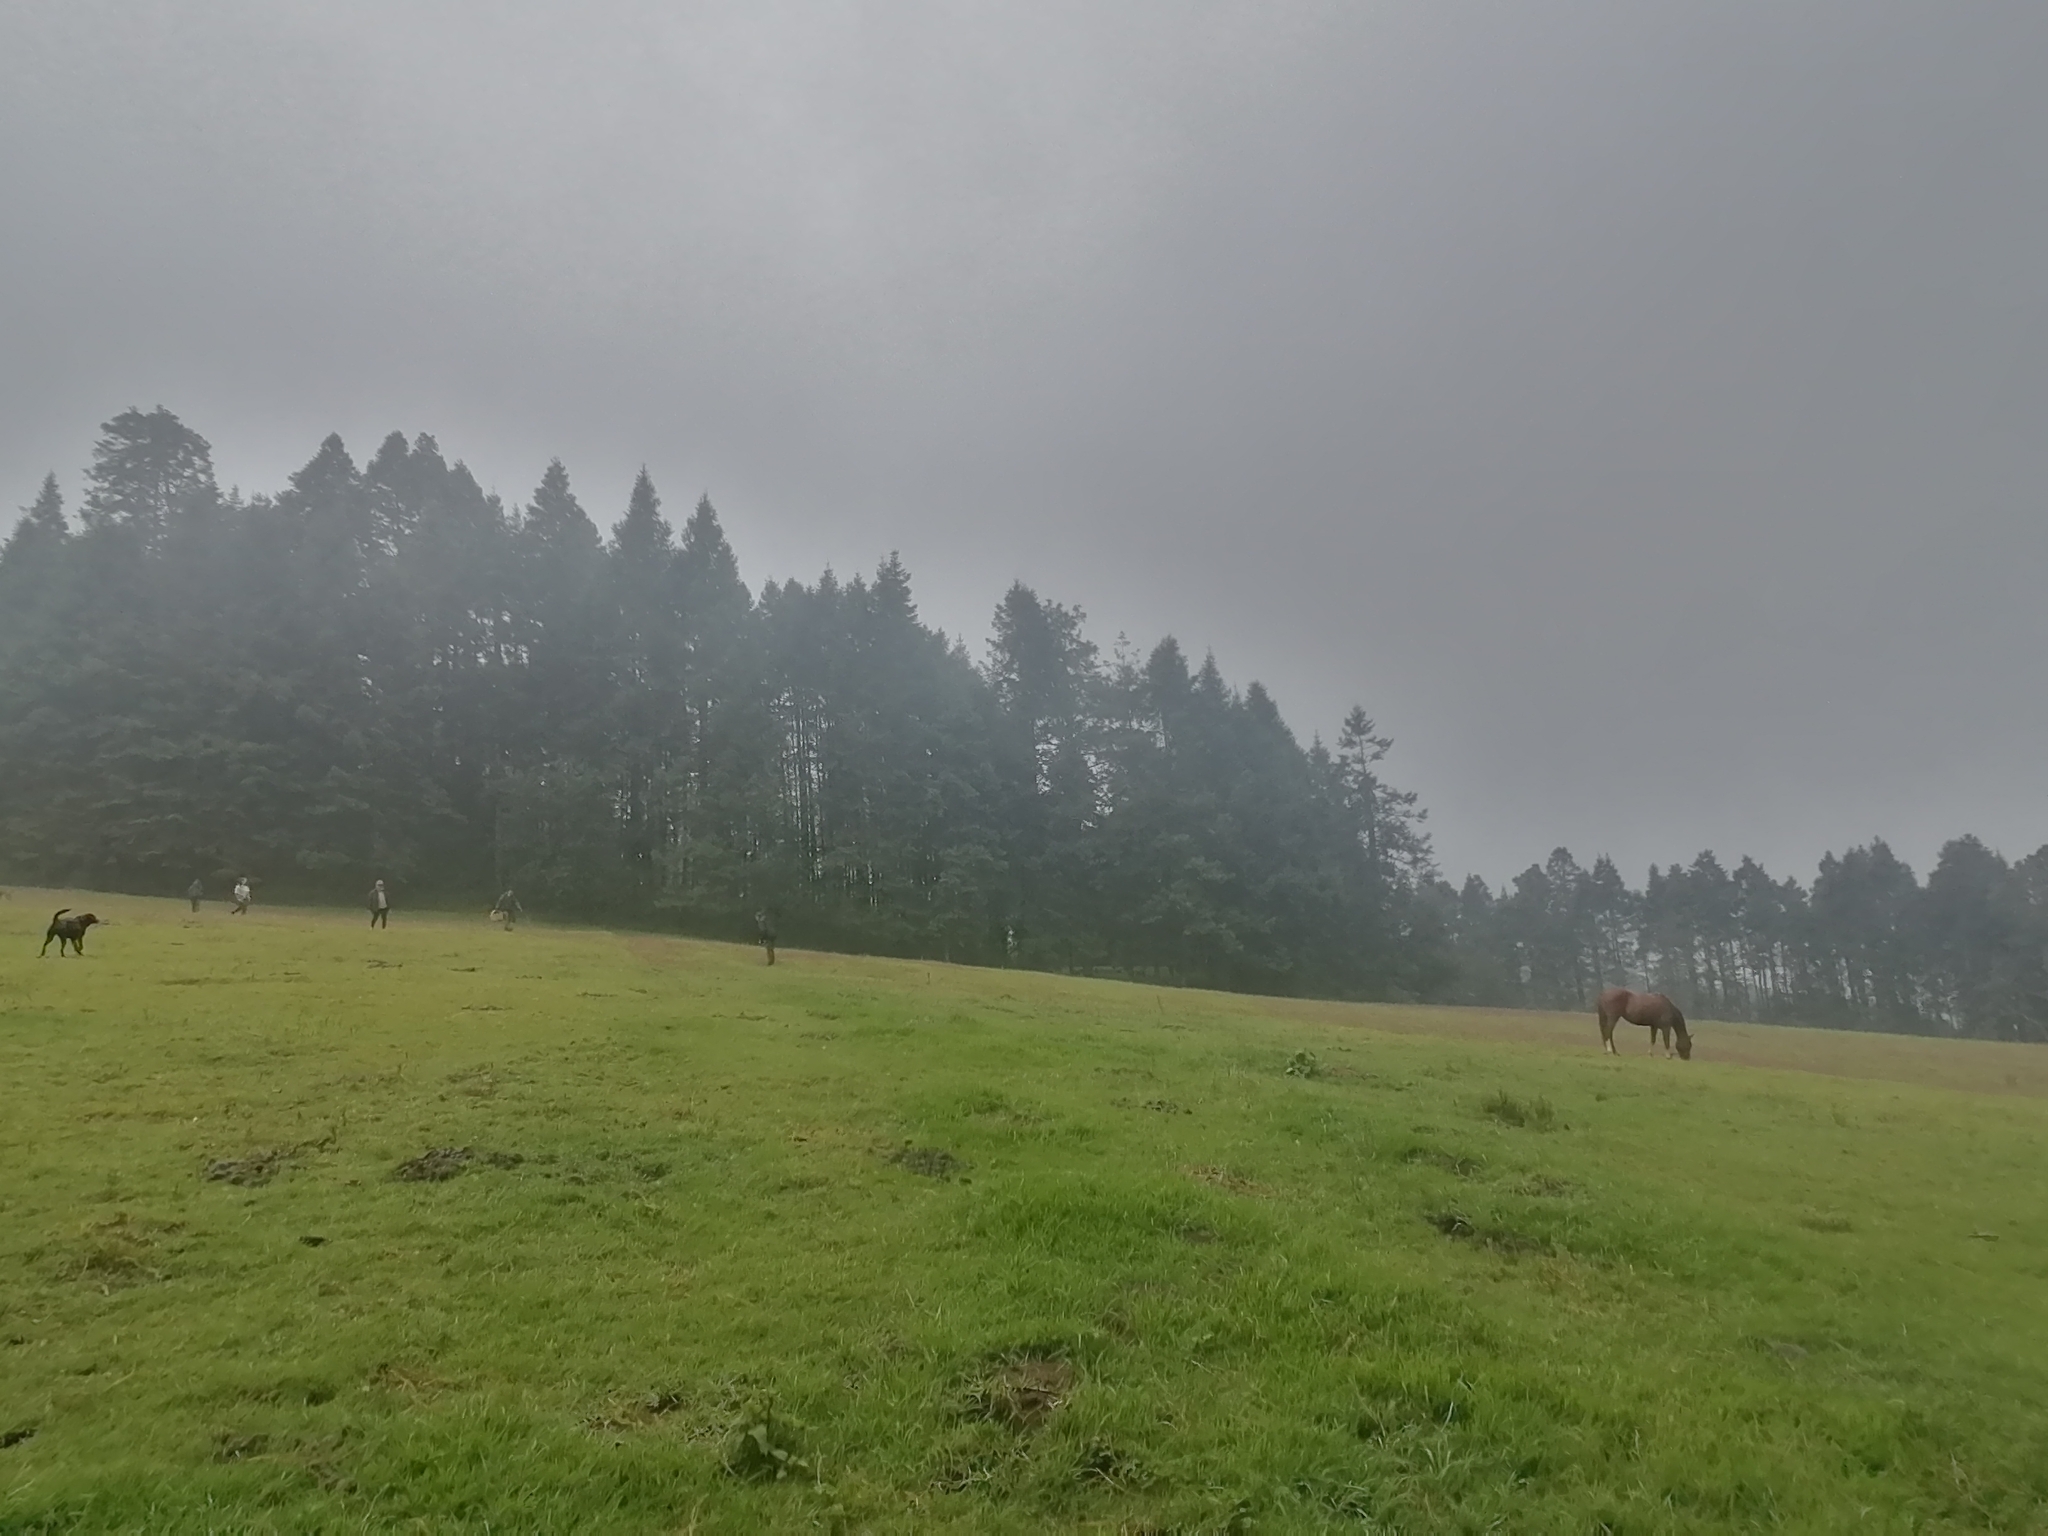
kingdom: Plantae
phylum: Tracheophyta
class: Pinopsida
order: Pinales
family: Pinaceae
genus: Abies
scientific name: Abies religiosa
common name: Sacred fir
